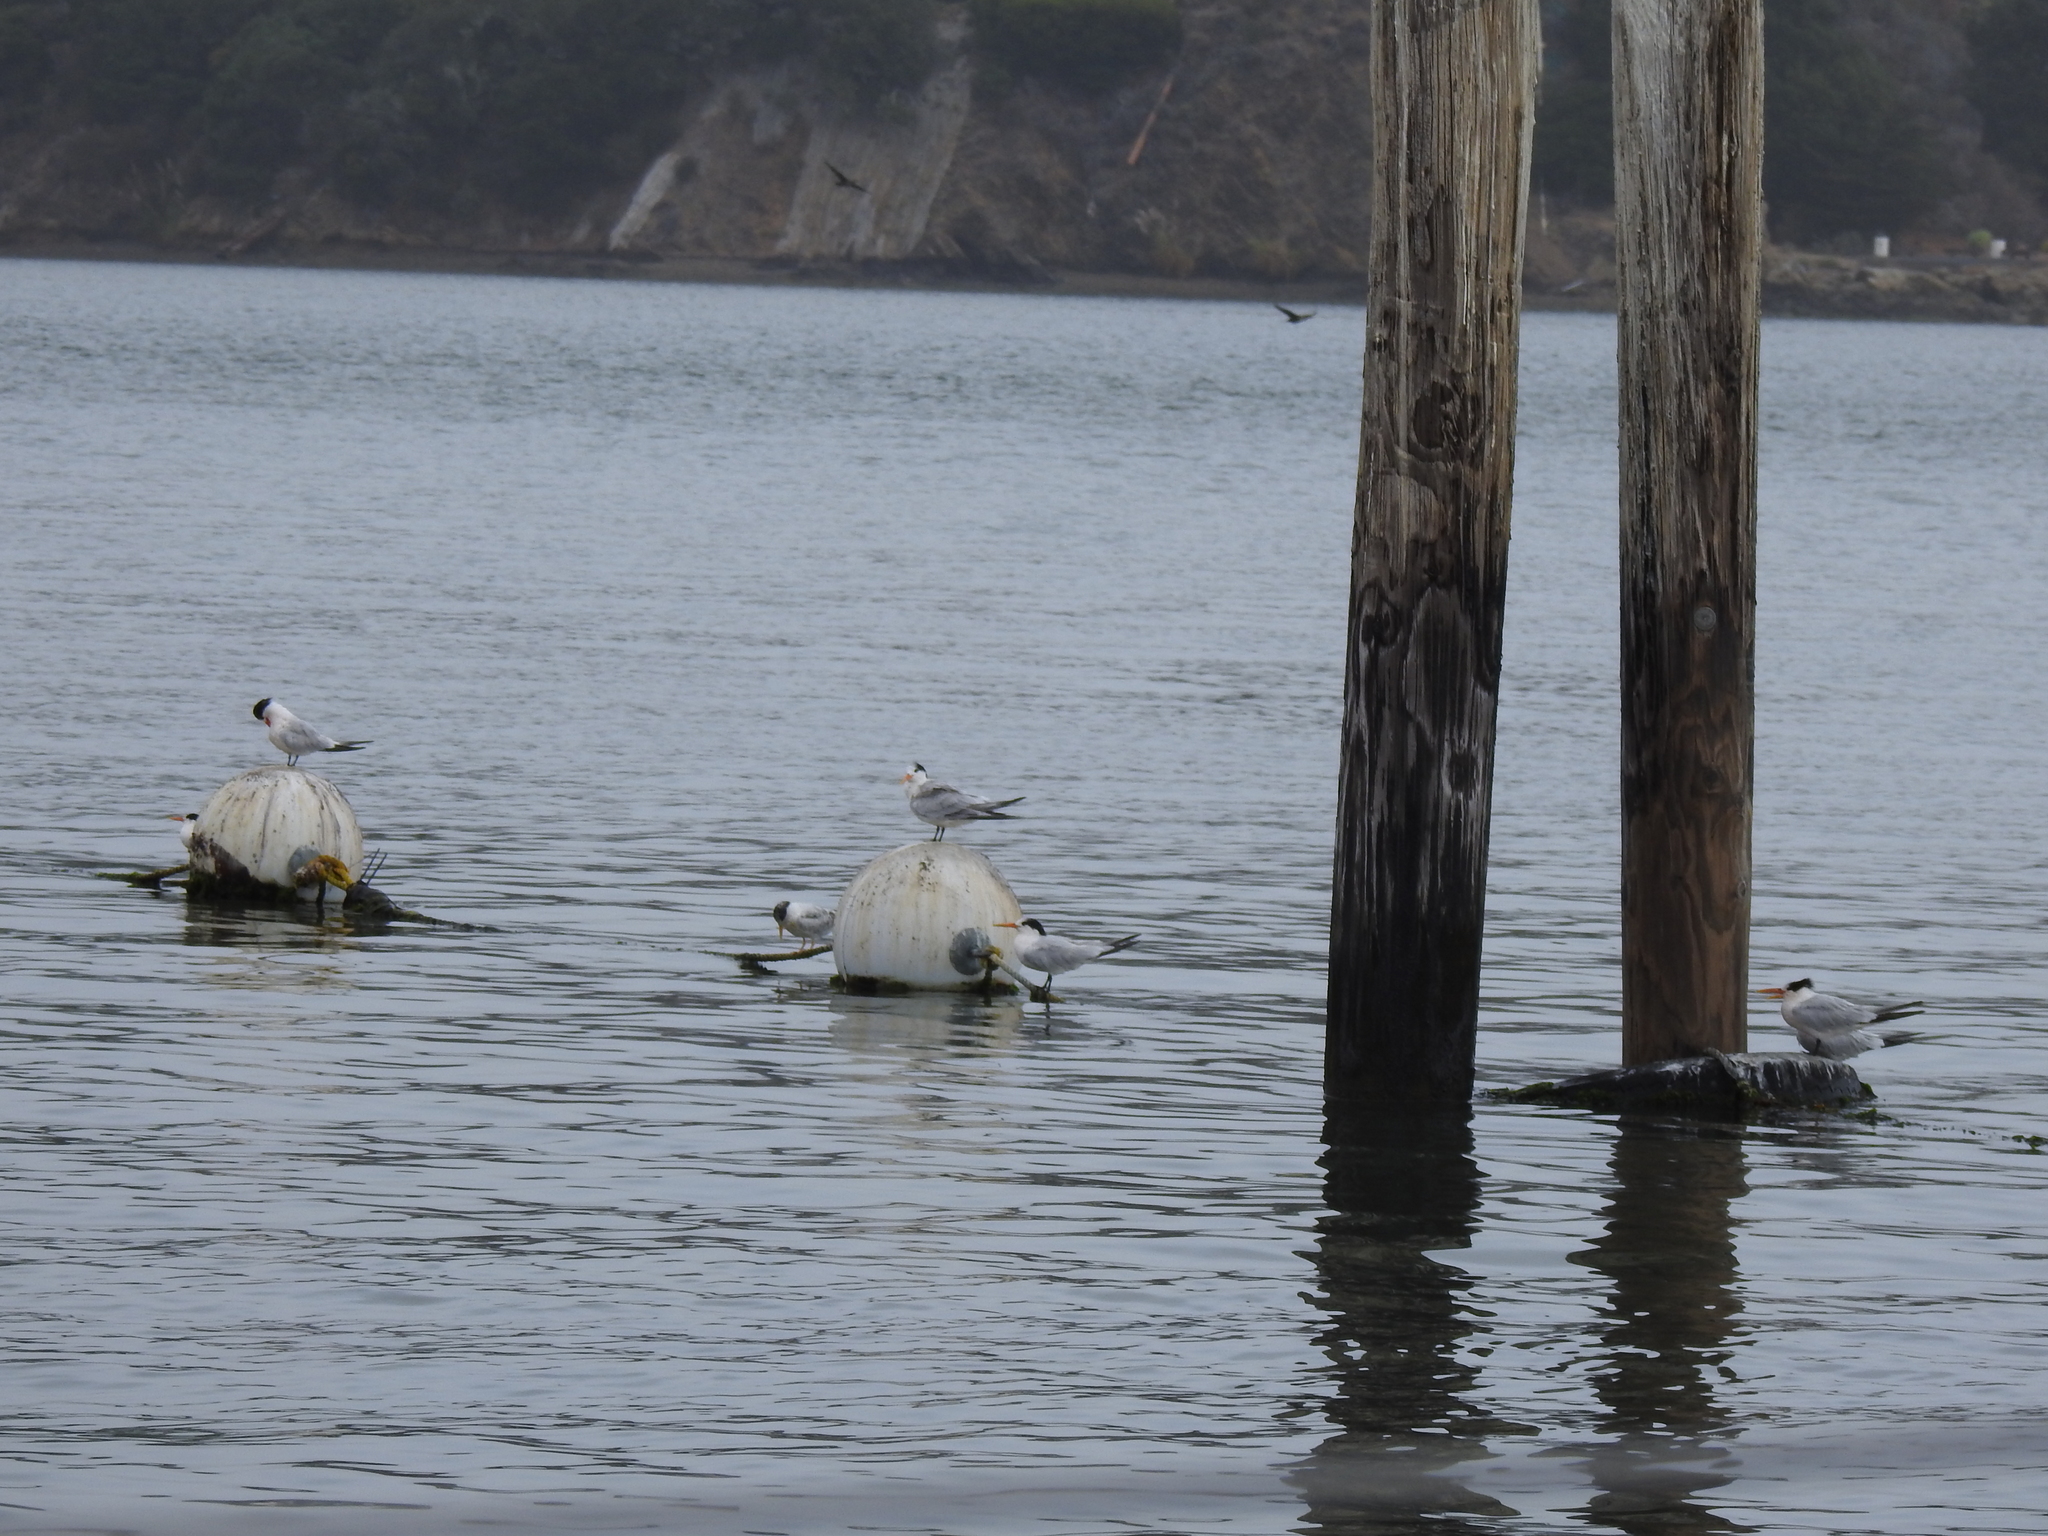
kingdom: Animalia
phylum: Chordata
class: Aves
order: Charadriiformes
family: Laridae
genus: Thalasseus
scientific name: Thalasseus elegans
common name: Elegant tern
